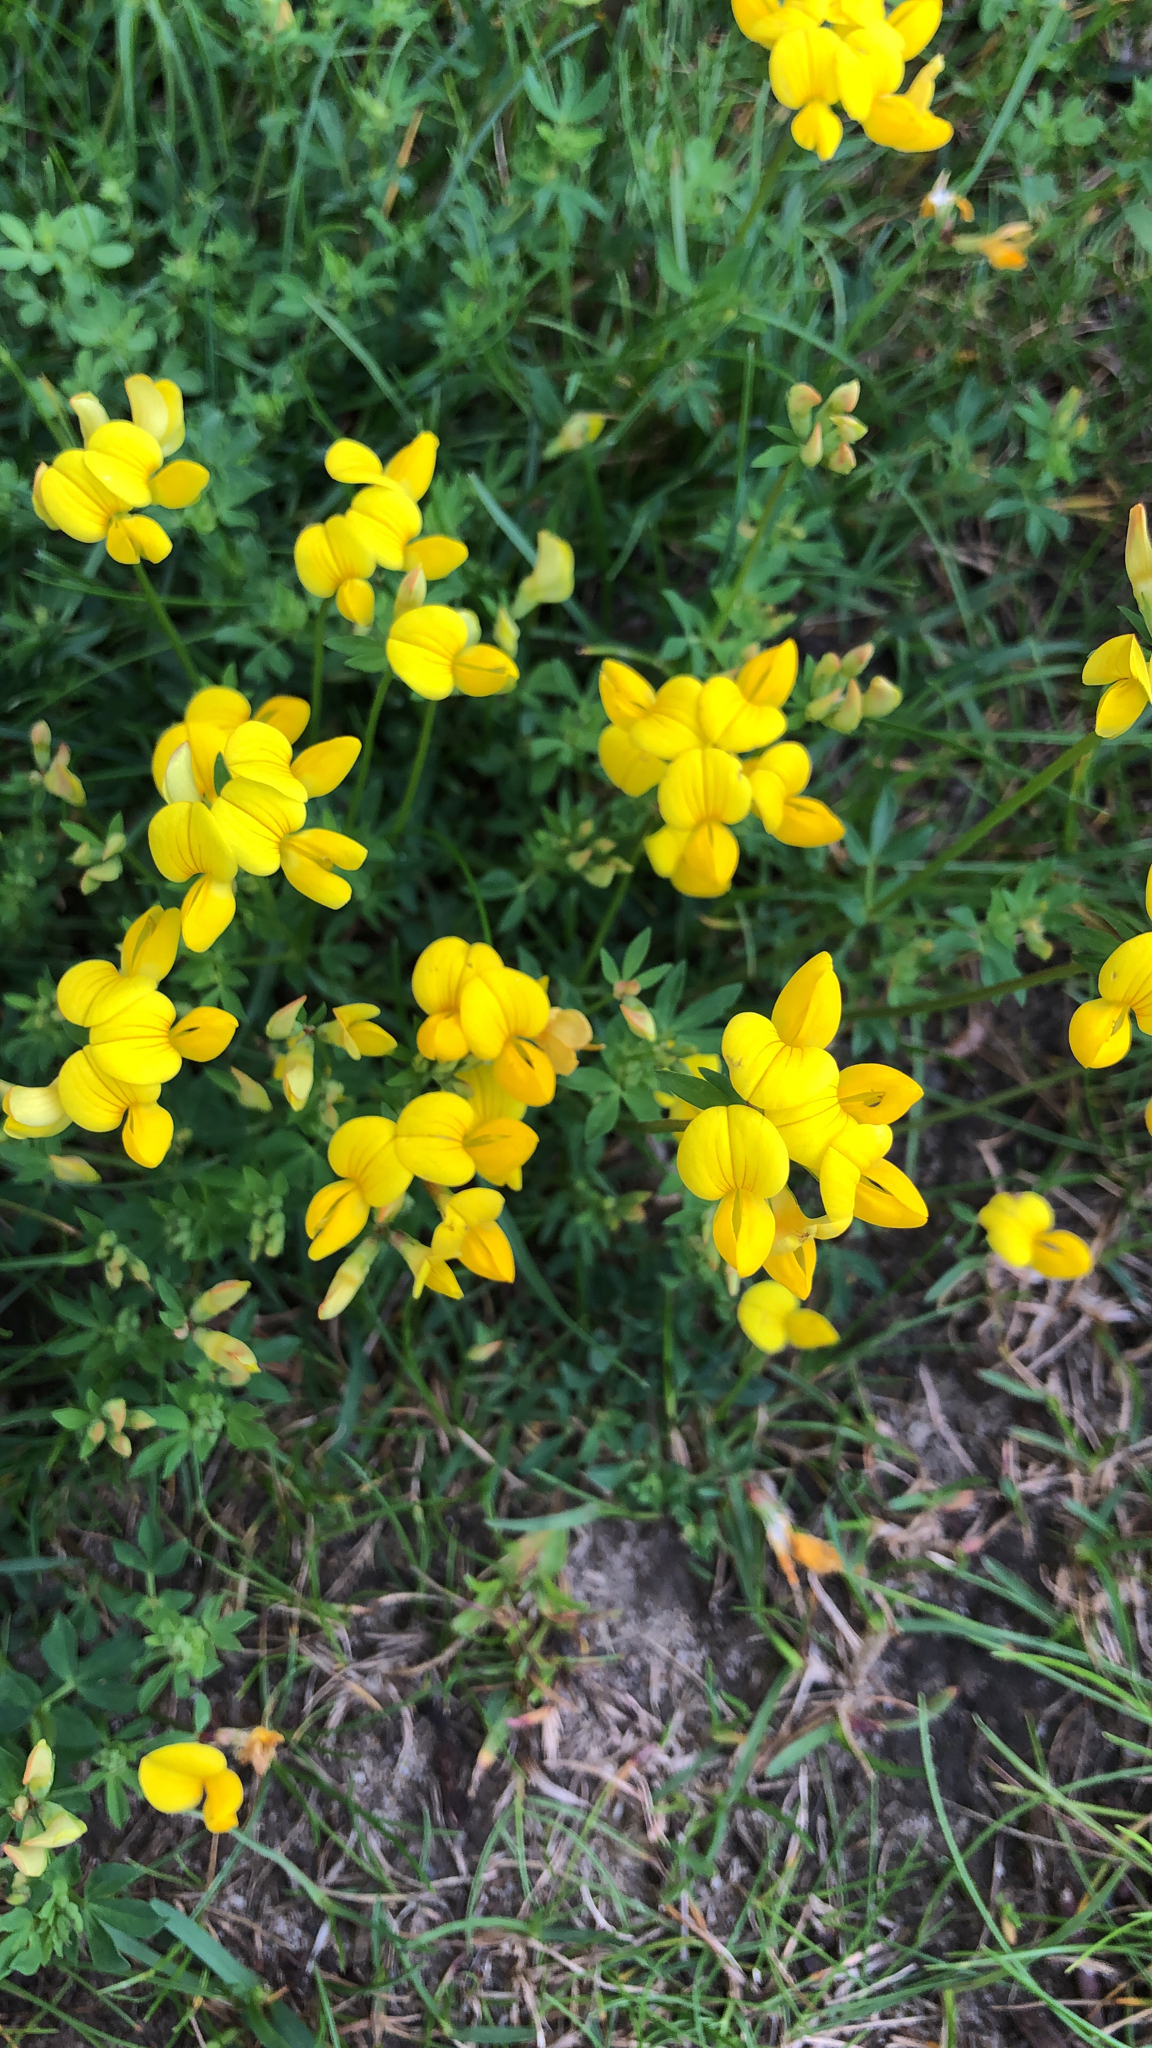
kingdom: Plantae
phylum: Tracheophyta
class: Magnoliopsida
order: Fabales
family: Fabaceae
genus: Lotus
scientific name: Lotus corniculatus
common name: Common bird's-foot-trefoil
